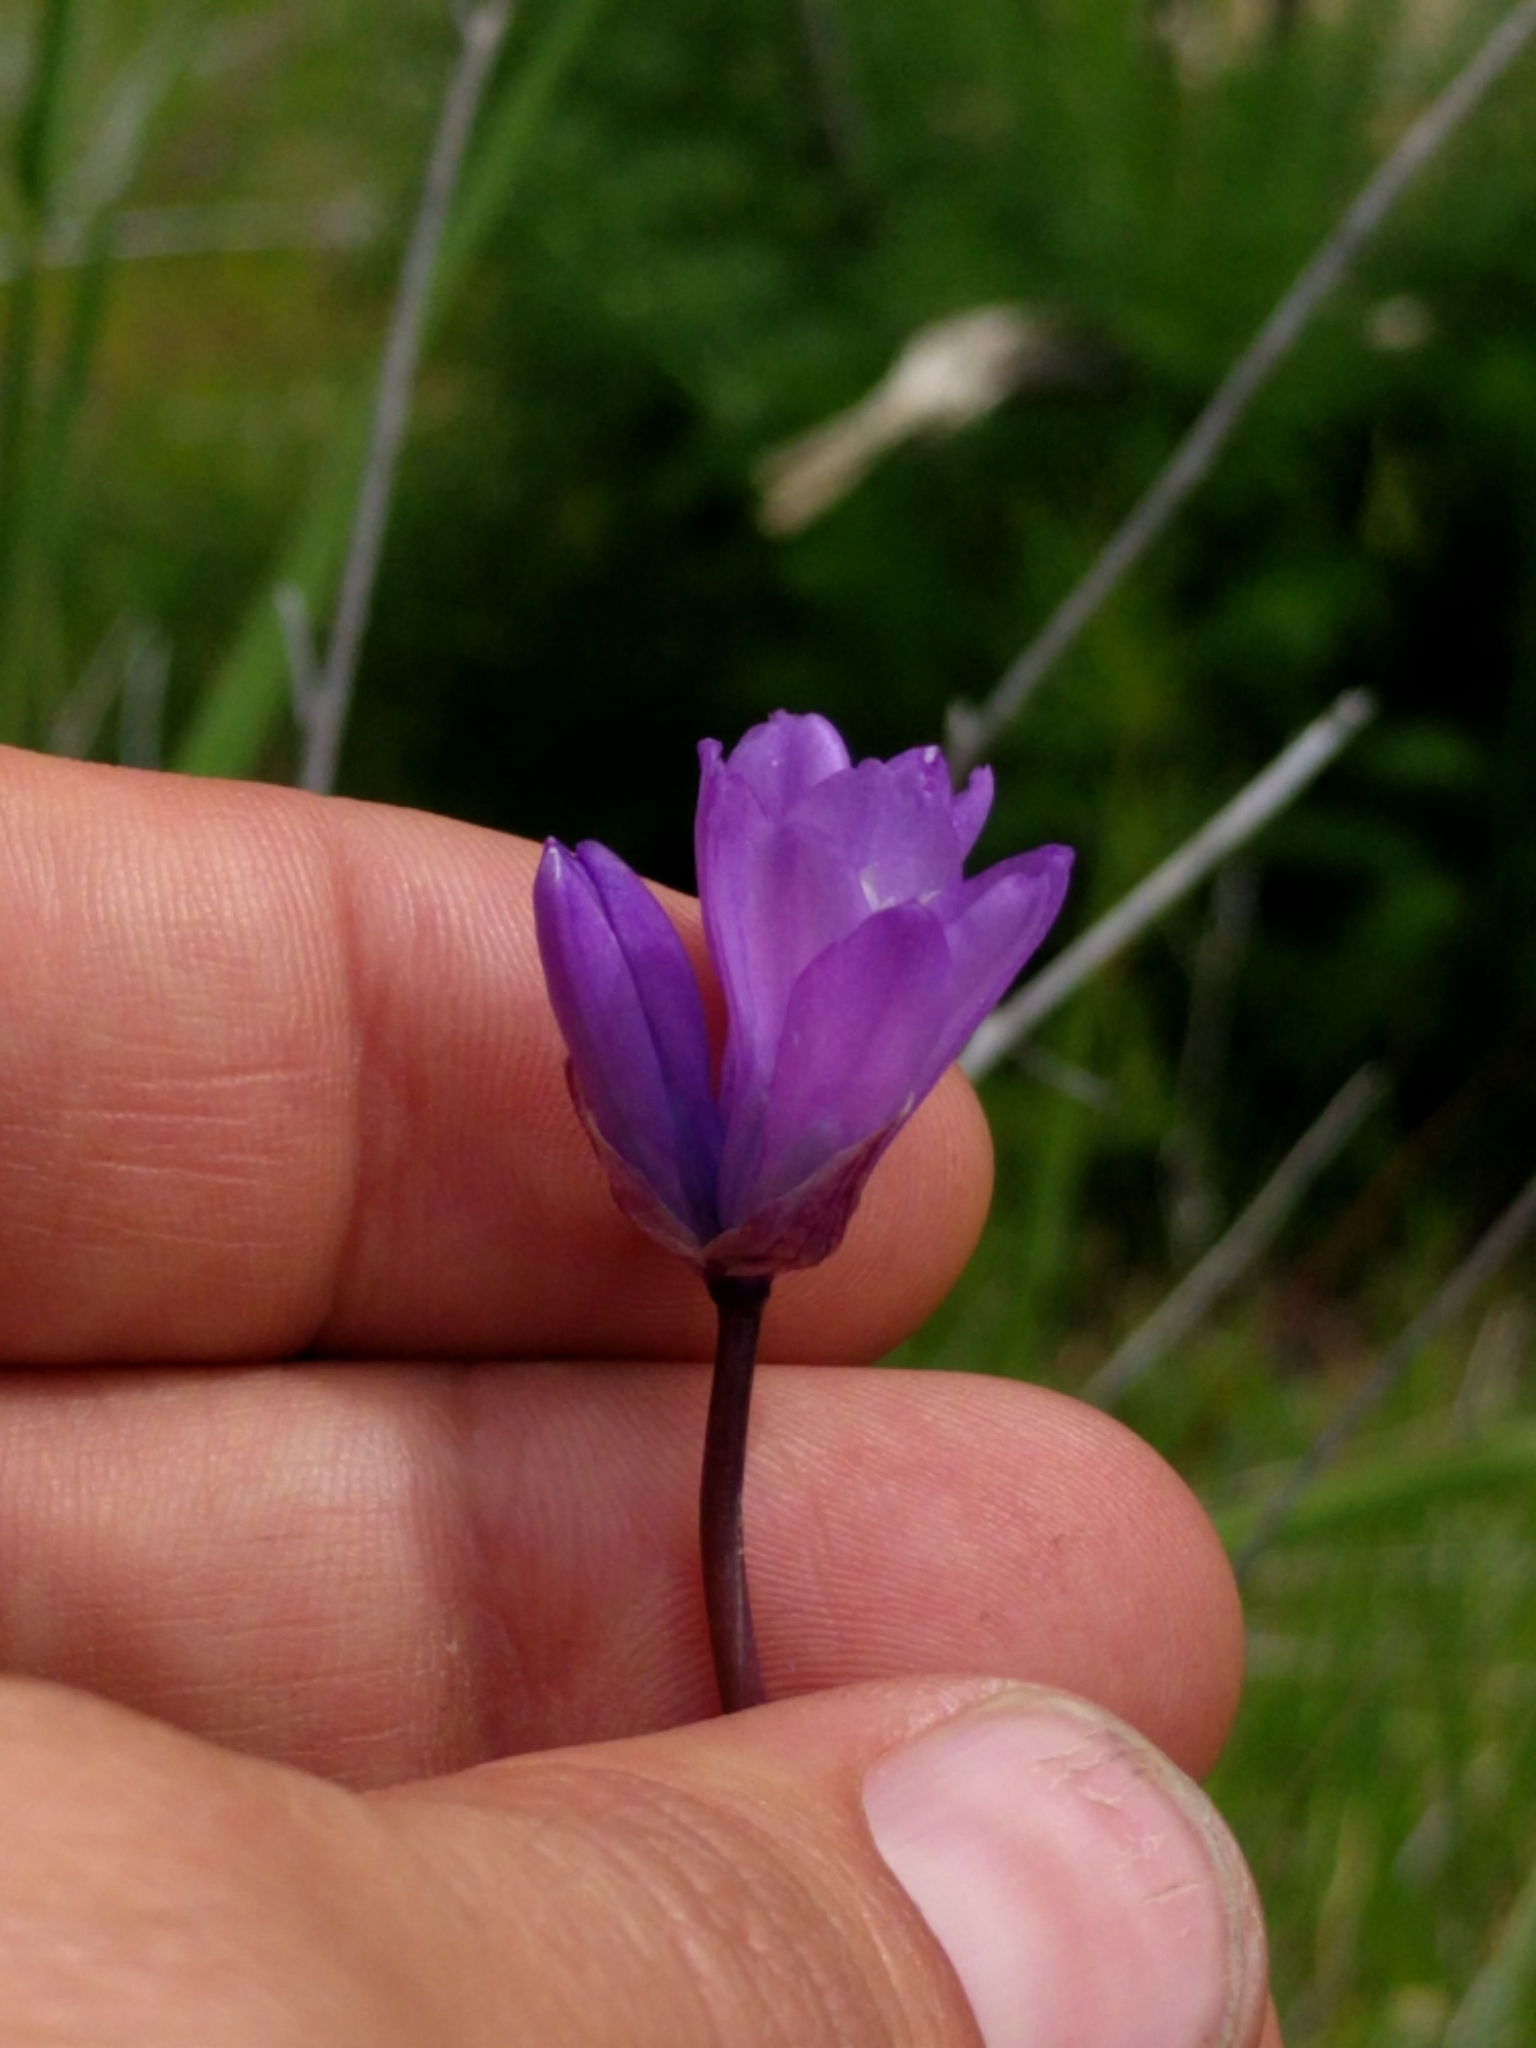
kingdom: Plantae
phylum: Tracheophyta
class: Liliopsida
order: Asparagales
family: Asparagaceae
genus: Dipterostemon
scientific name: Dipterostemon capitatus
